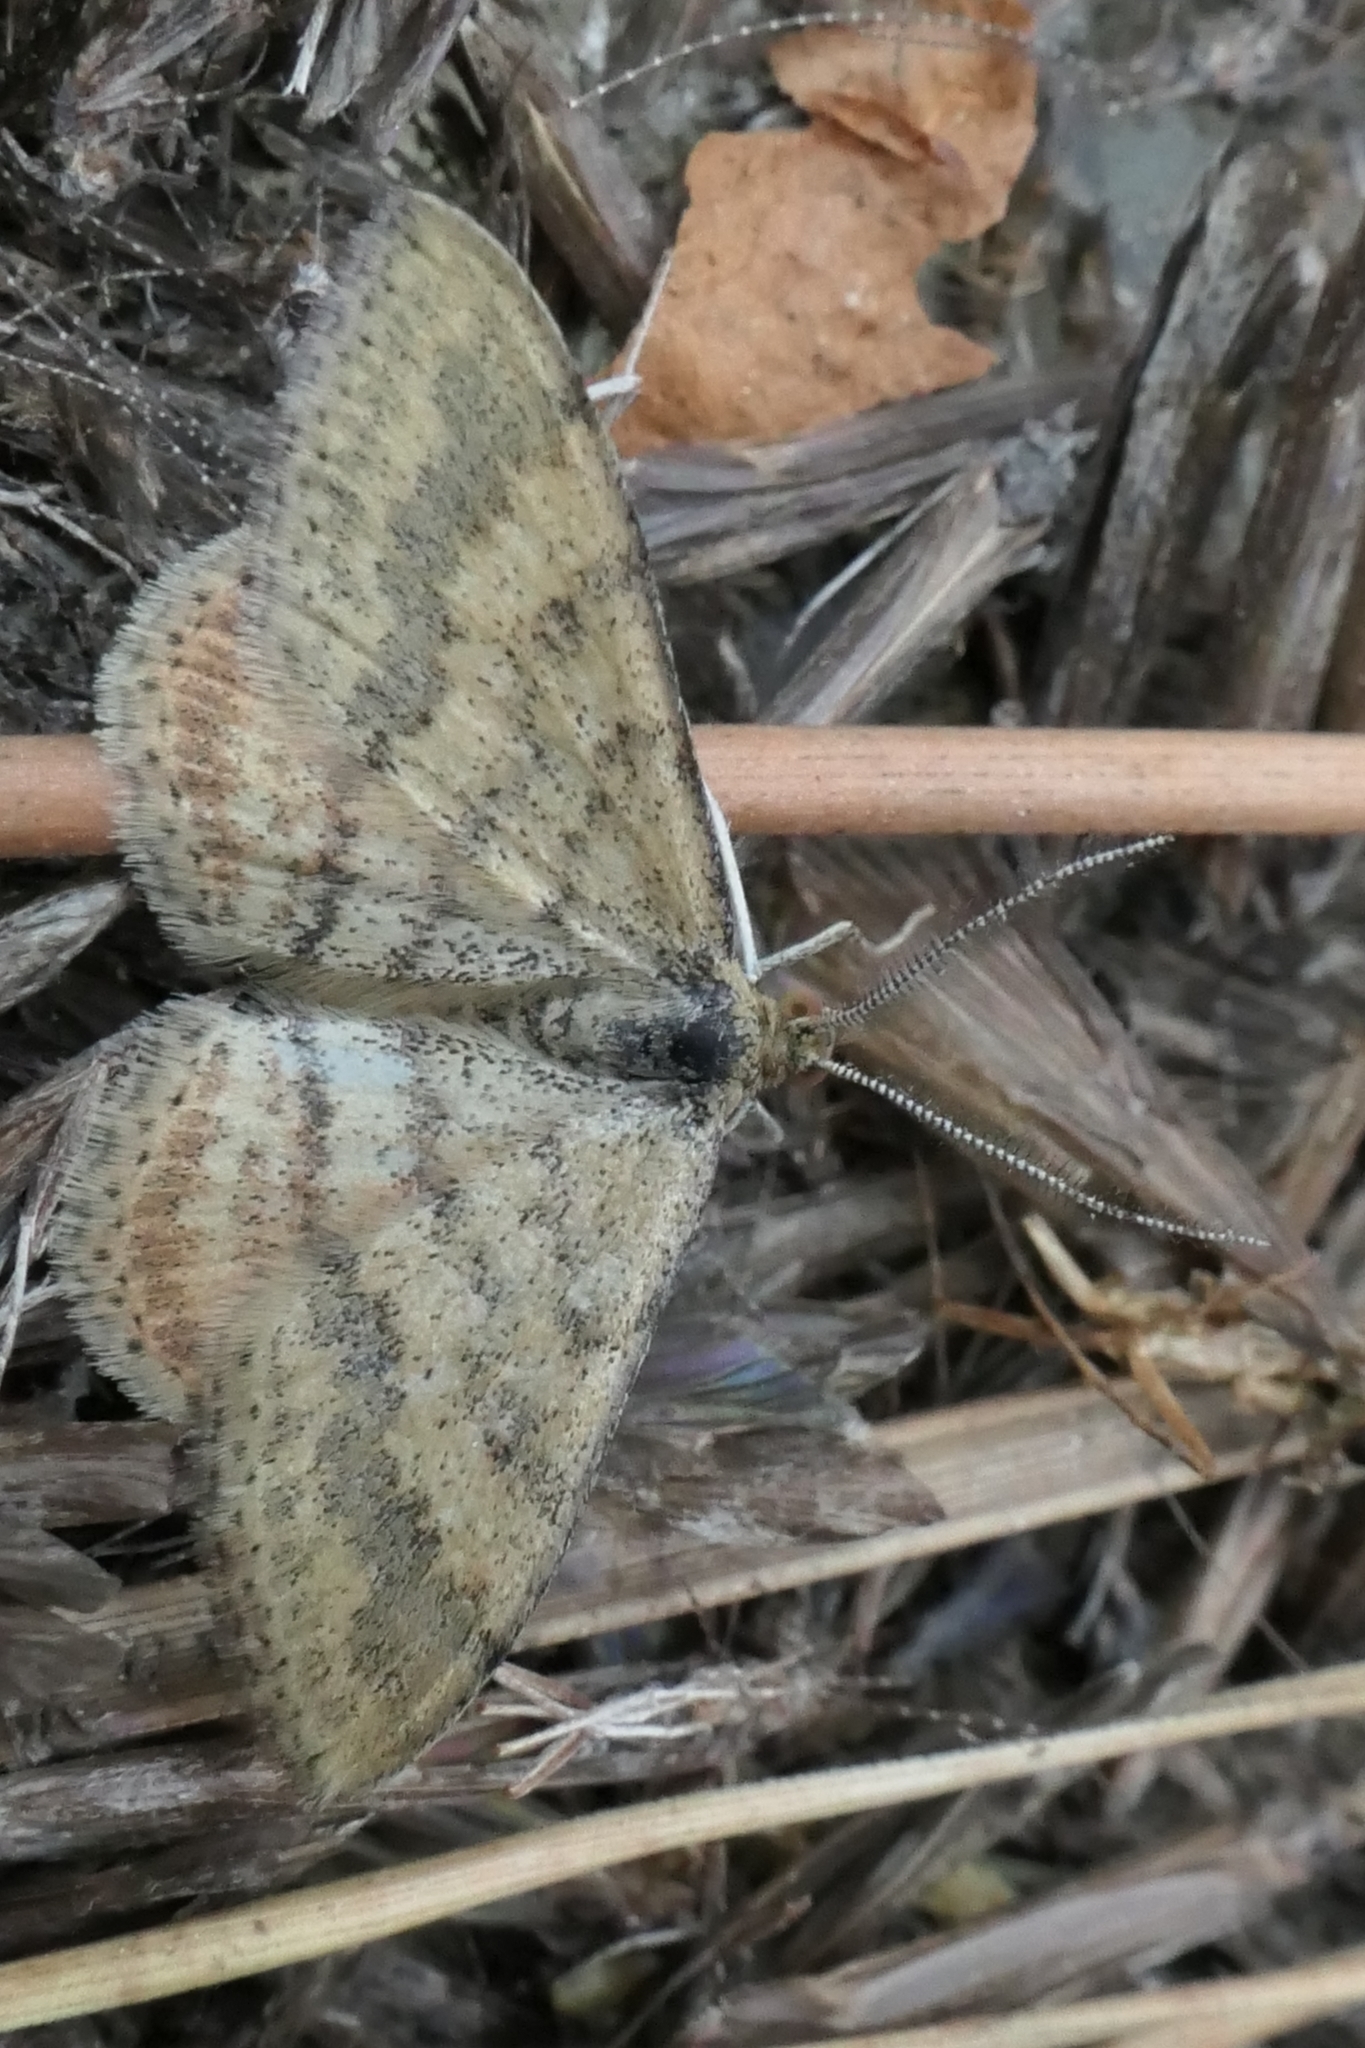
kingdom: Animalia
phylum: Arthropoda
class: Insecta
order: Lepidoptera
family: Geometridae
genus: Scopula
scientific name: Scopula rubraria
